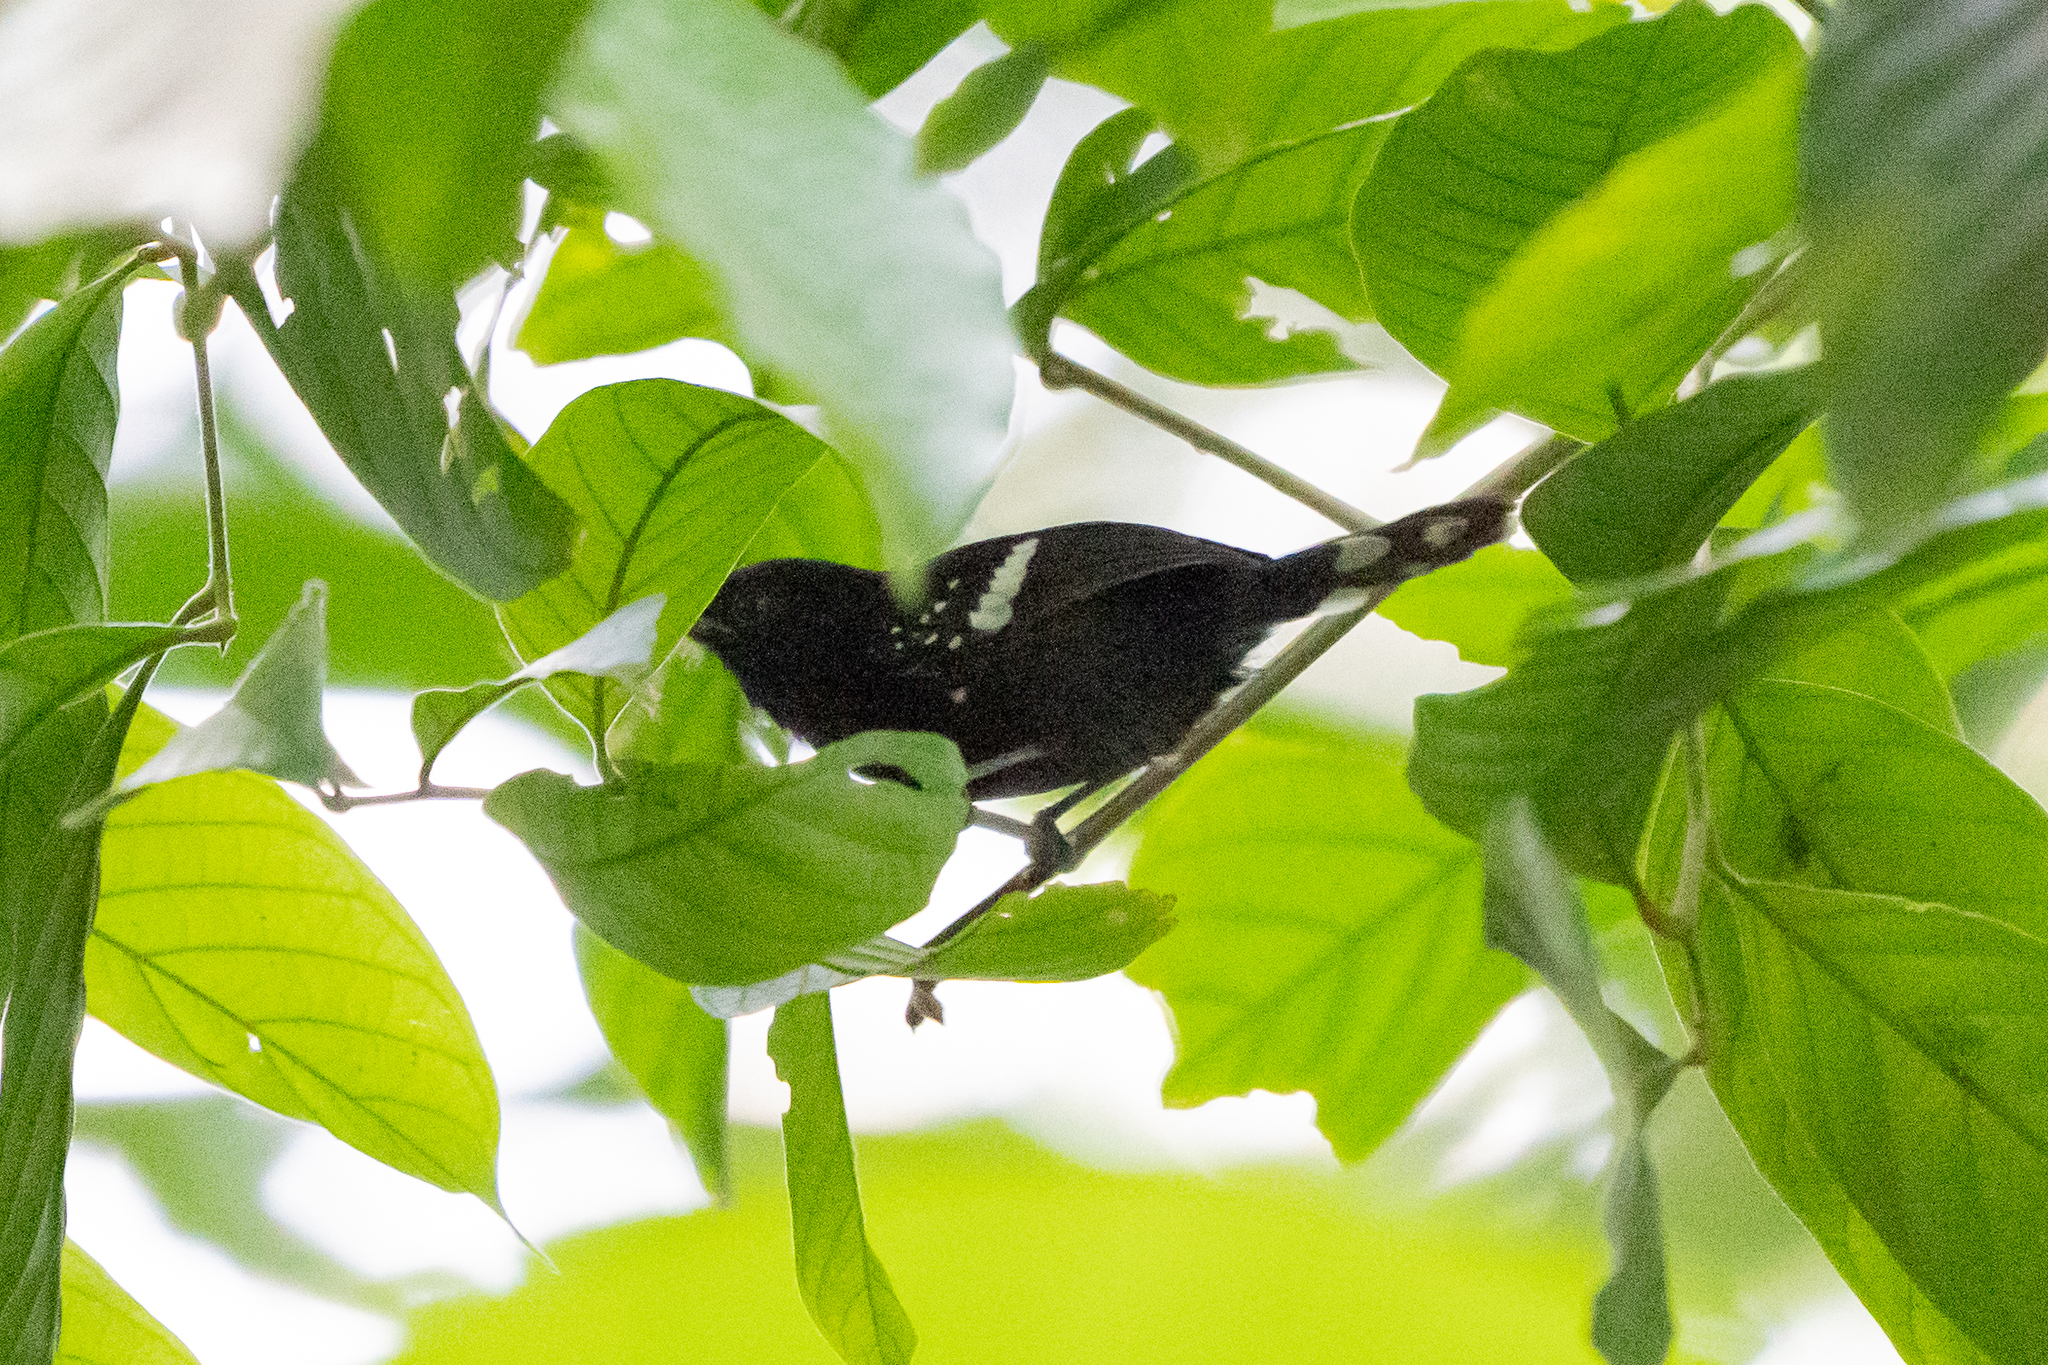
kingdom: Animalia
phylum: Chordata
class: Aves
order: Passeriformes
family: Thamnophilidae
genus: Microrhopias
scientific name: Microrhopias quixensis
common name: Dot-winged antwren
